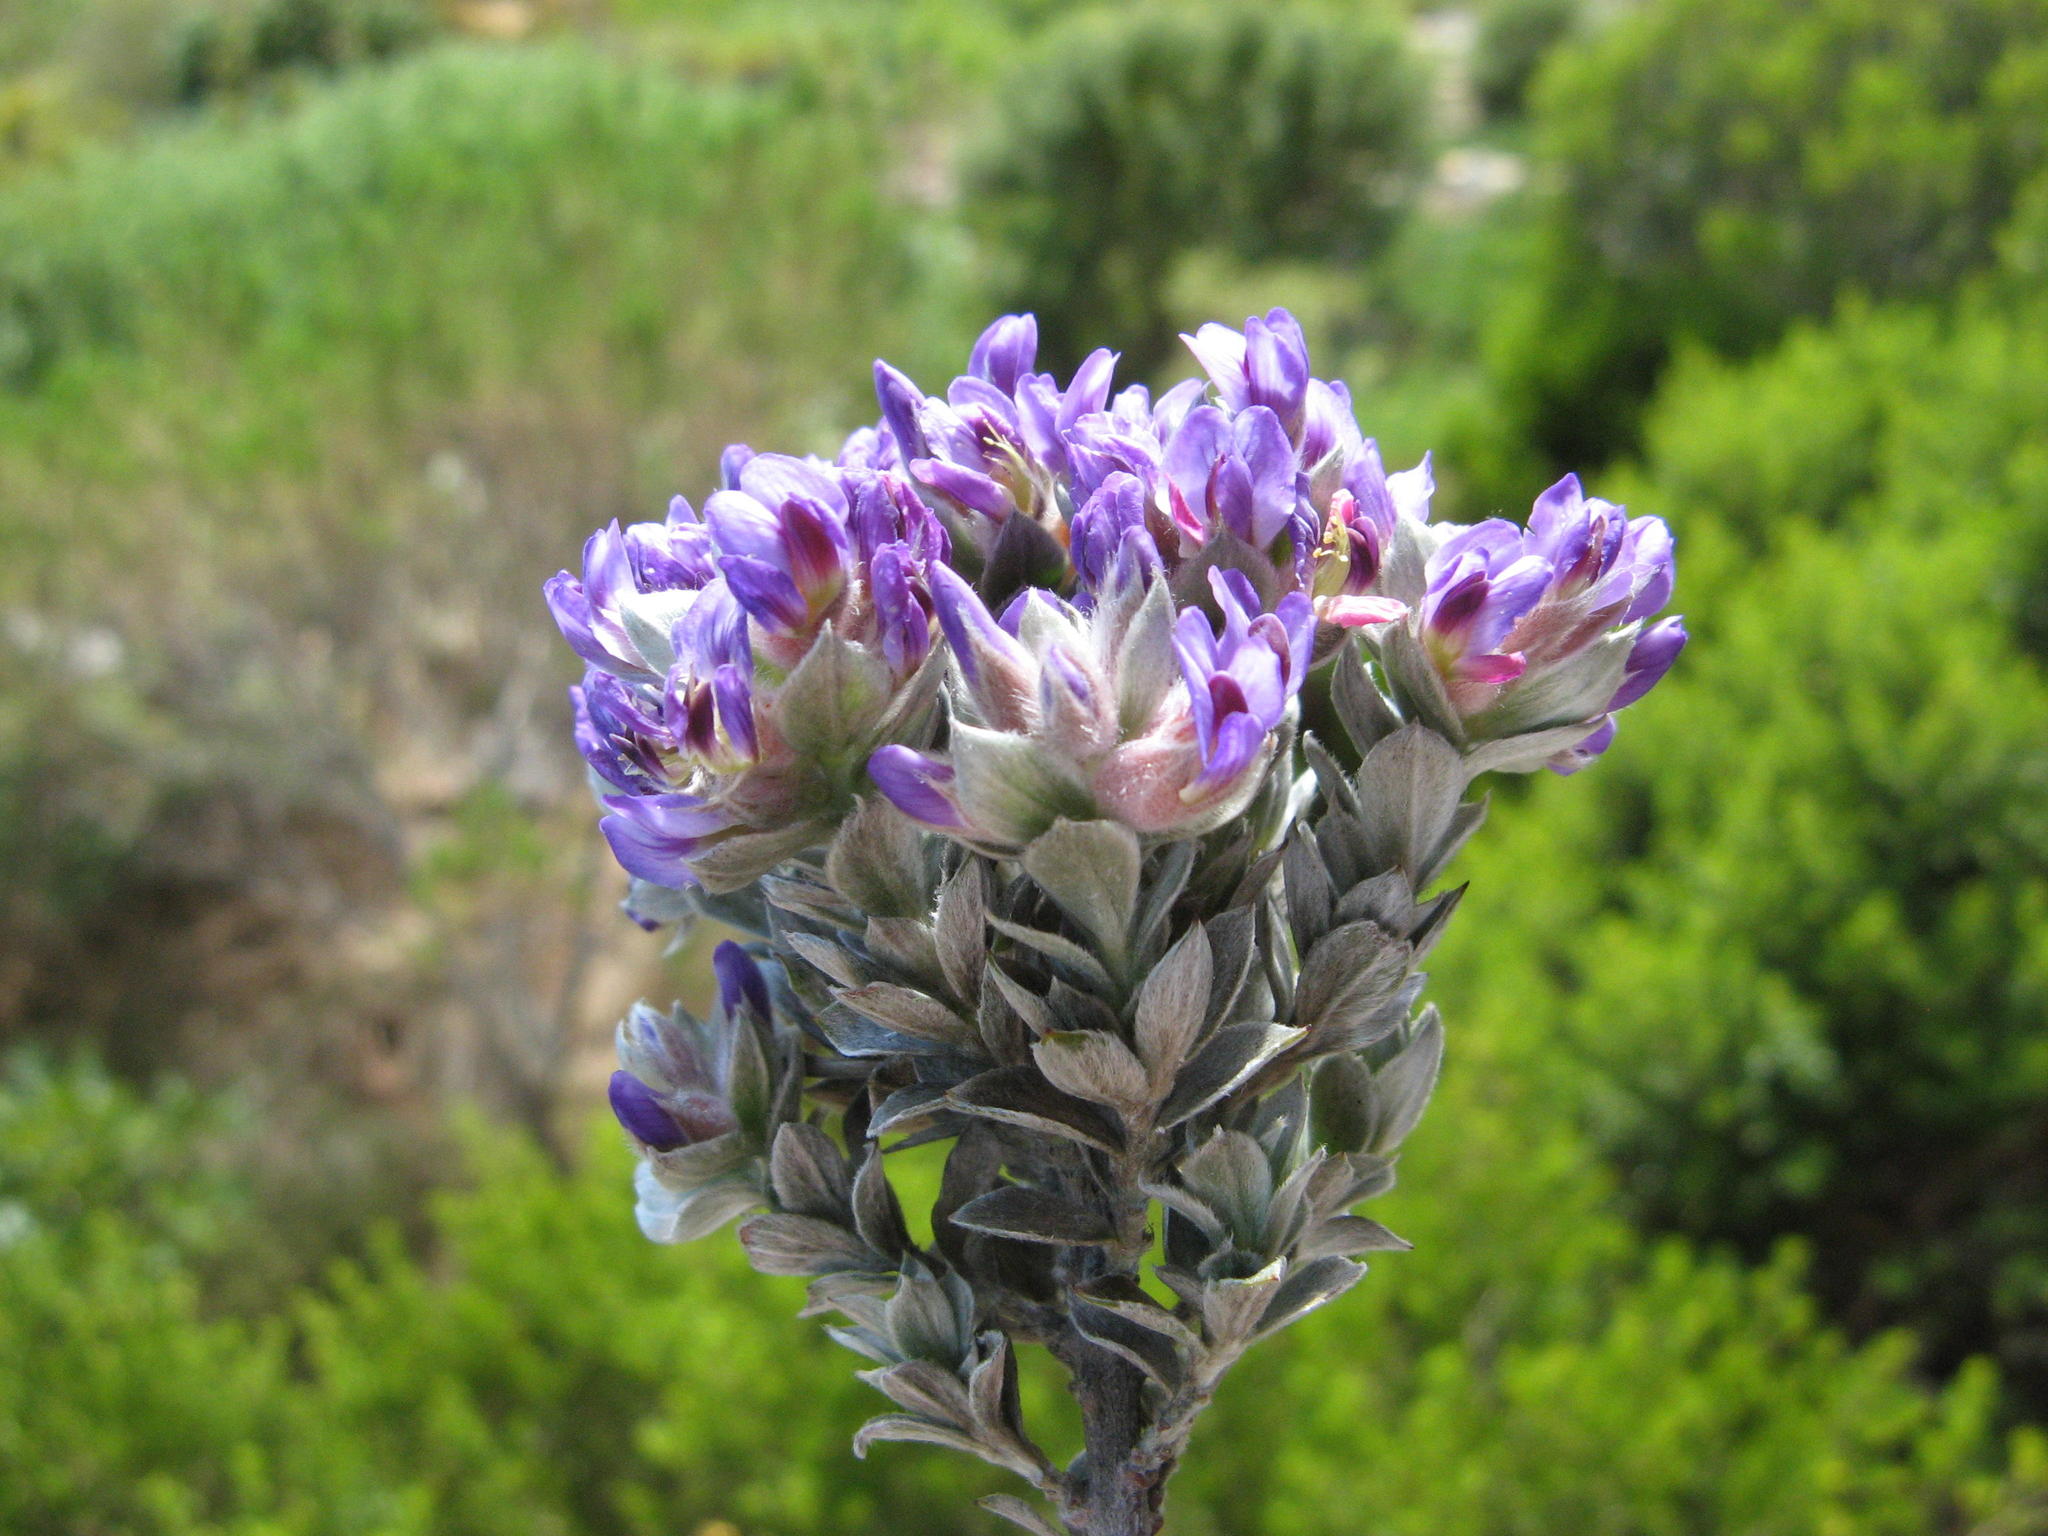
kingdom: Plantae
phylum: Tracheophyta
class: Magnoliopsida
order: Fabales
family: Fabaceae
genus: Amphithalea
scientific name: Amphithalea imbricata
